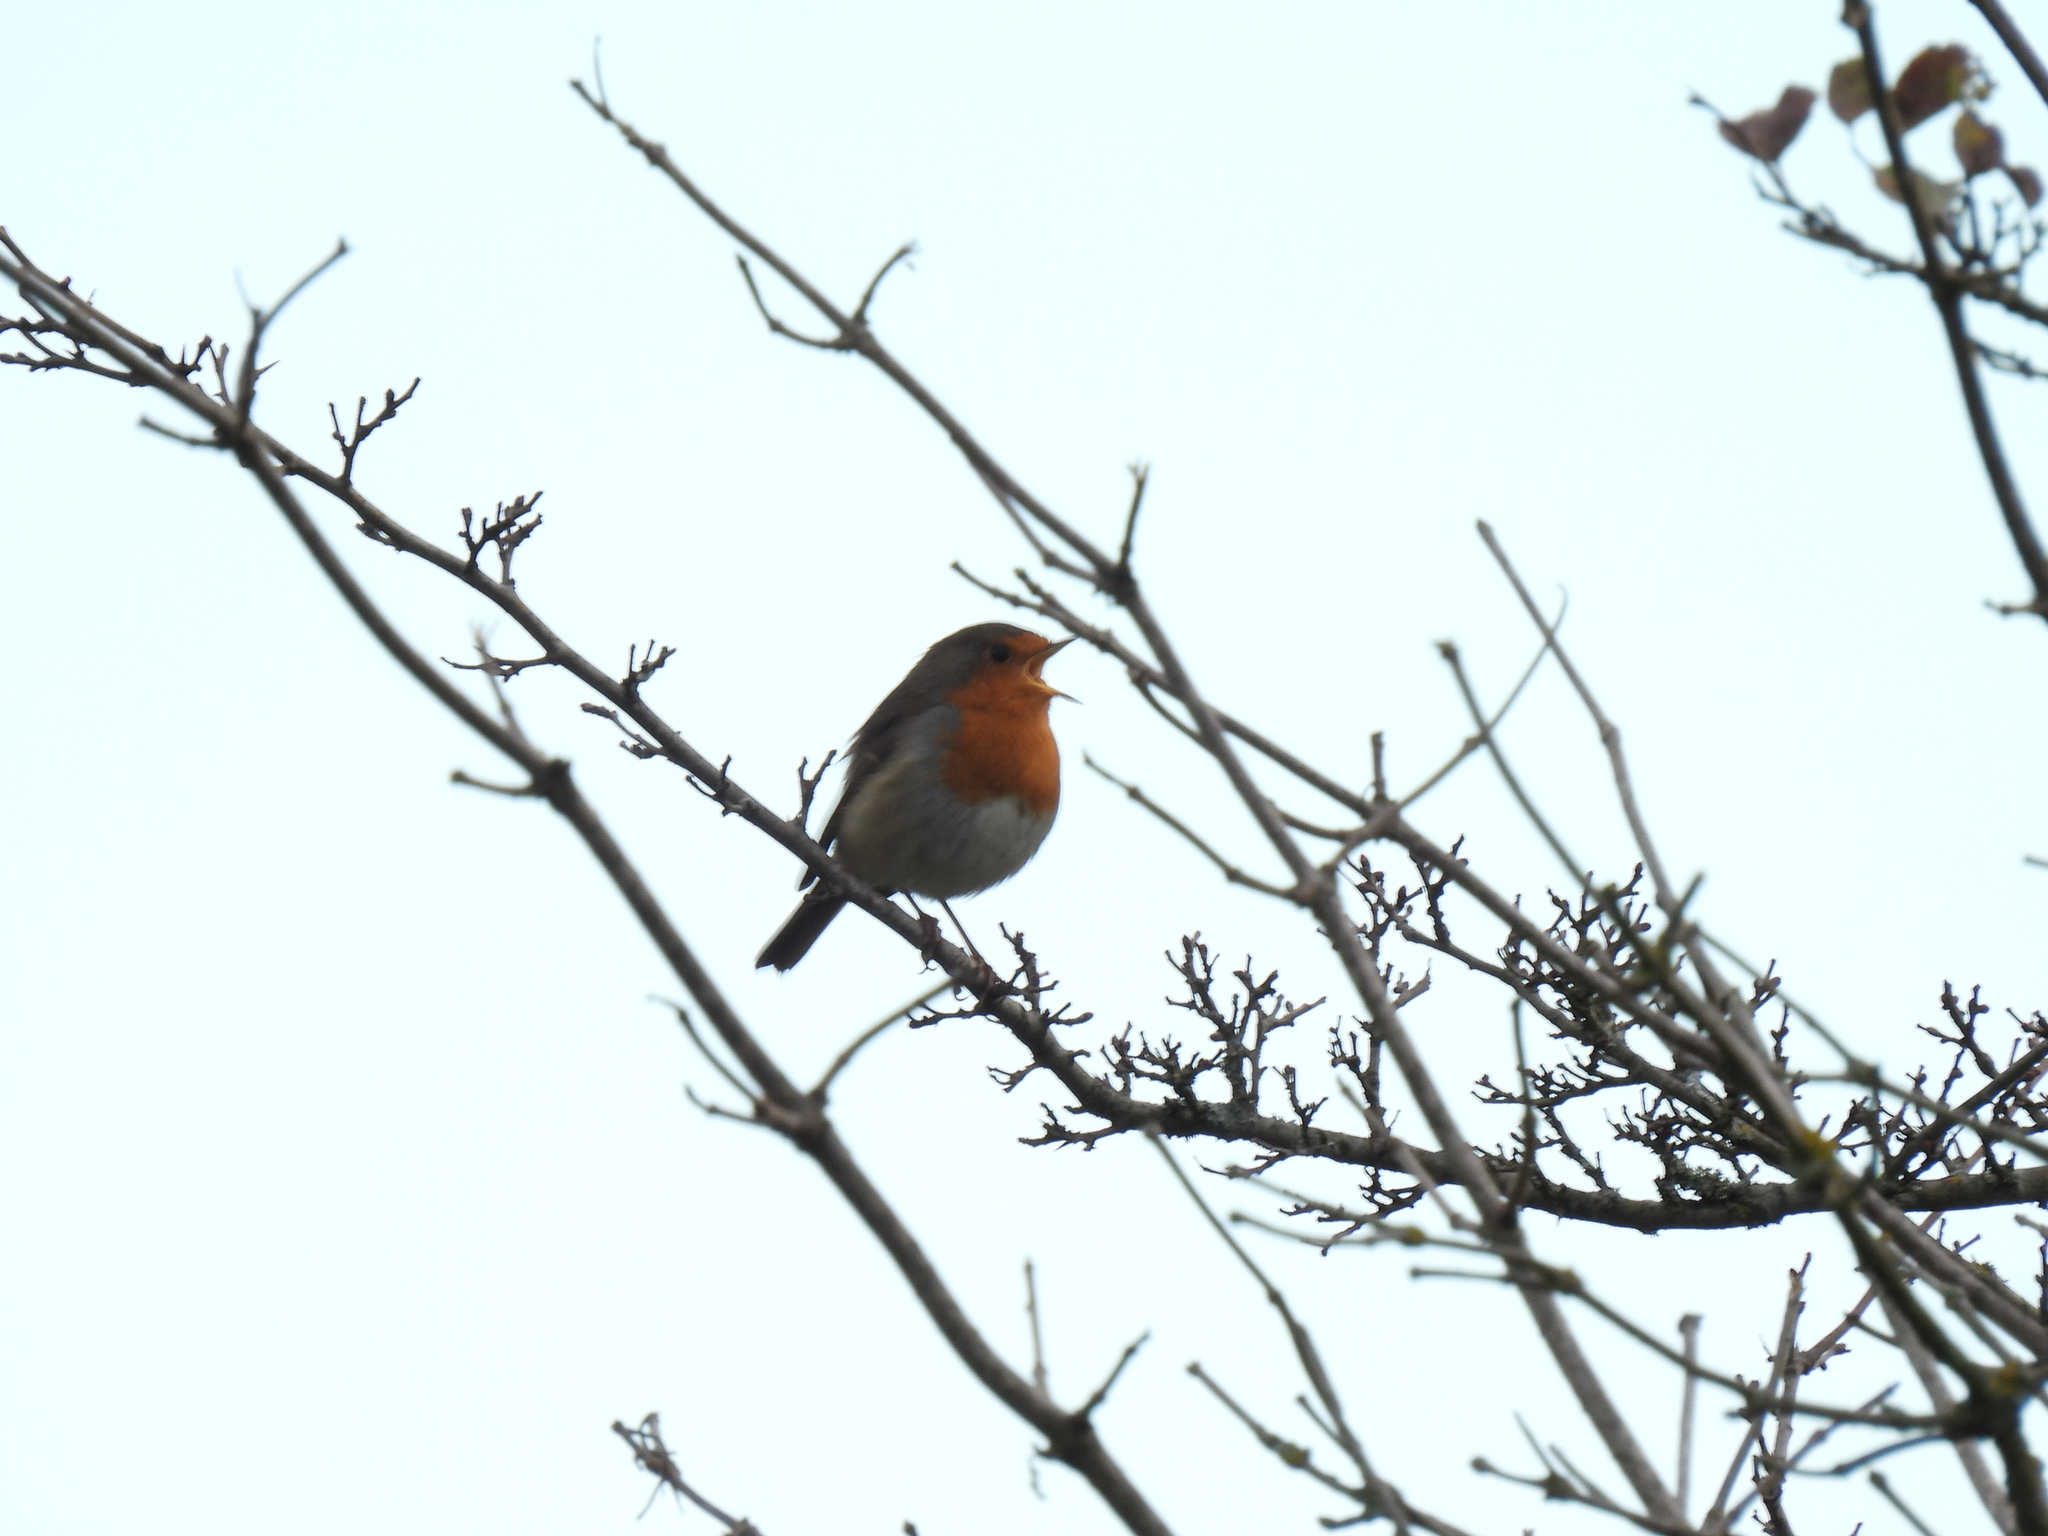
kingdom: Animalia
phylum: Chordata
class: Aves
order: Passeriformes
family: Muscicapidae
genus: Erithacus
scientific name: Erithacus rubecula
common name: European robin
